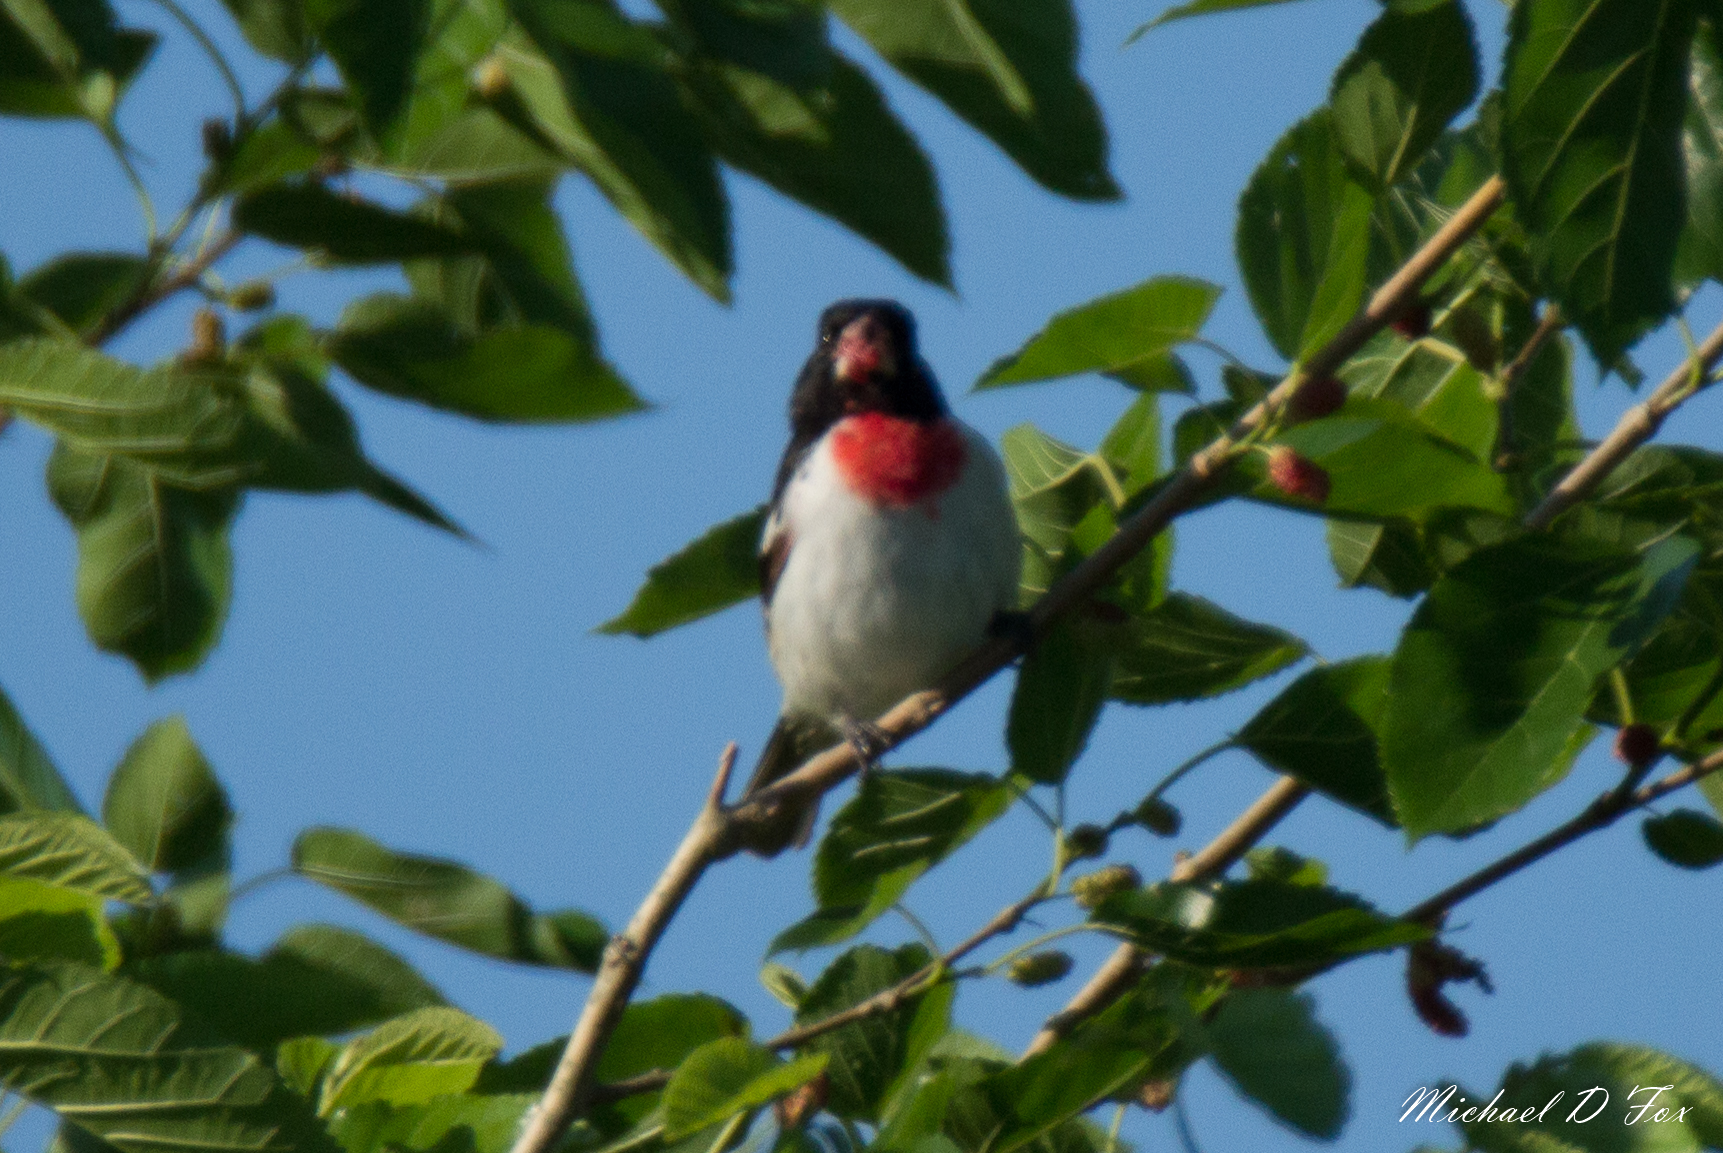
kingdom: Animalia
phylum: Chordata
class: Aves
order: Passeriformes
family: Cardinalidae
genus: Pheucticus
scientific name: Pheucticus ludovicianus
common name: Rose-breasted grosbeak
